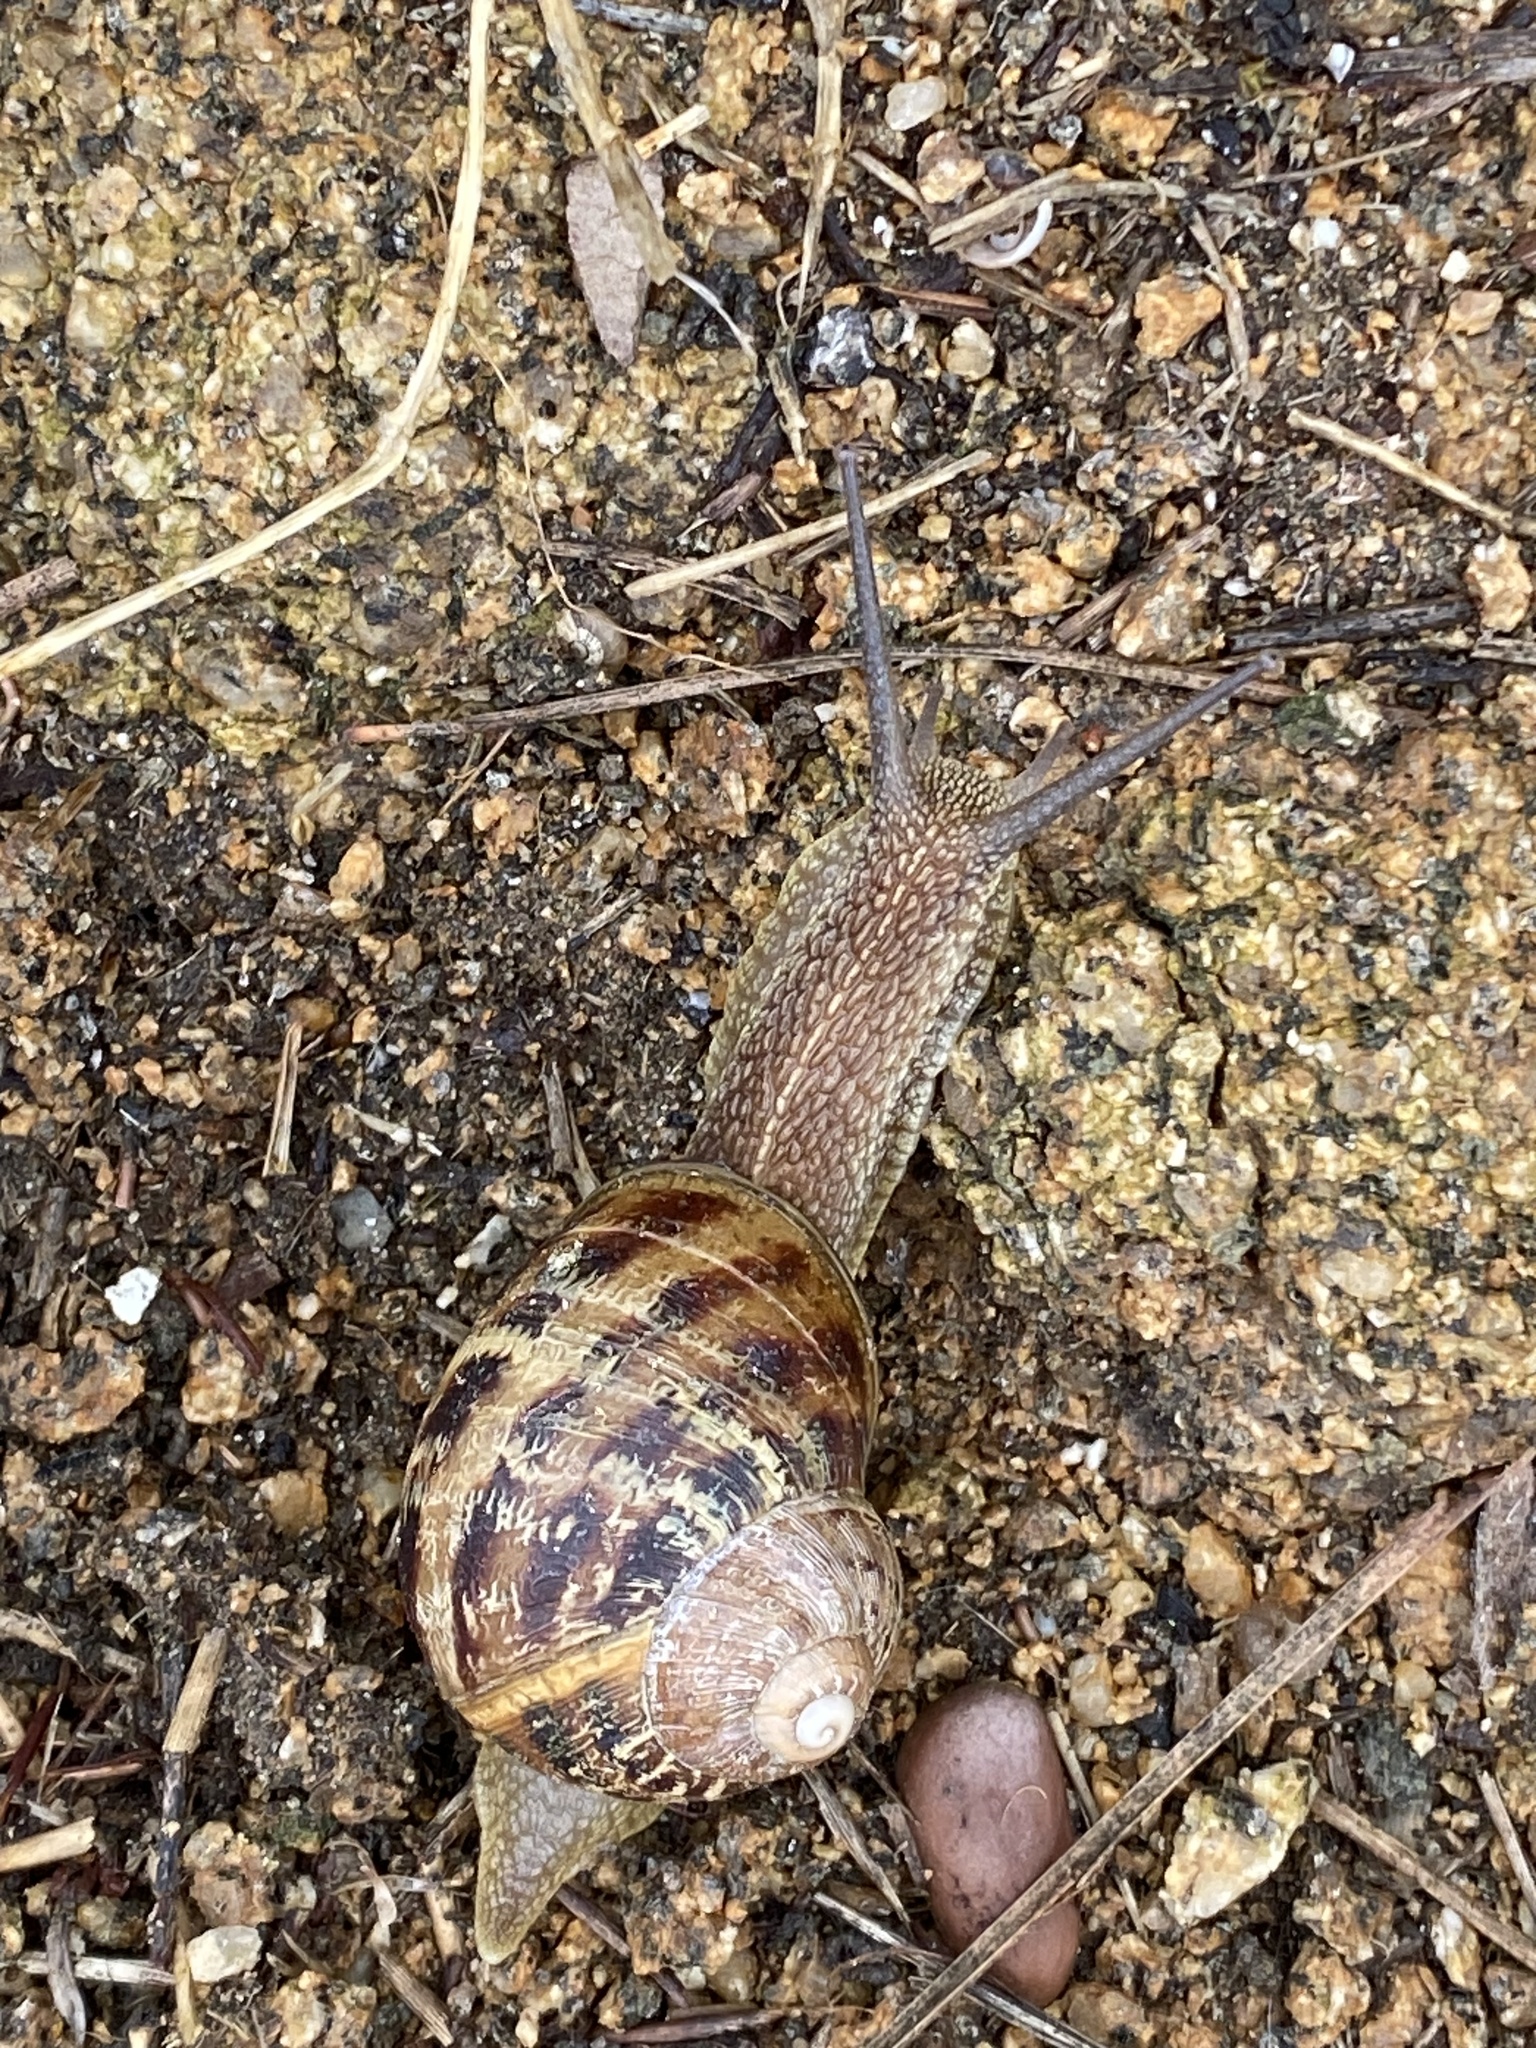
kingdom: Animalia
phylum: Mollusca
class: Gastropoda
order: Stylommatophora
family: Helicidae
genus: Cornu
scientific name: Cornu aspersum
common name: Brown garden snail
